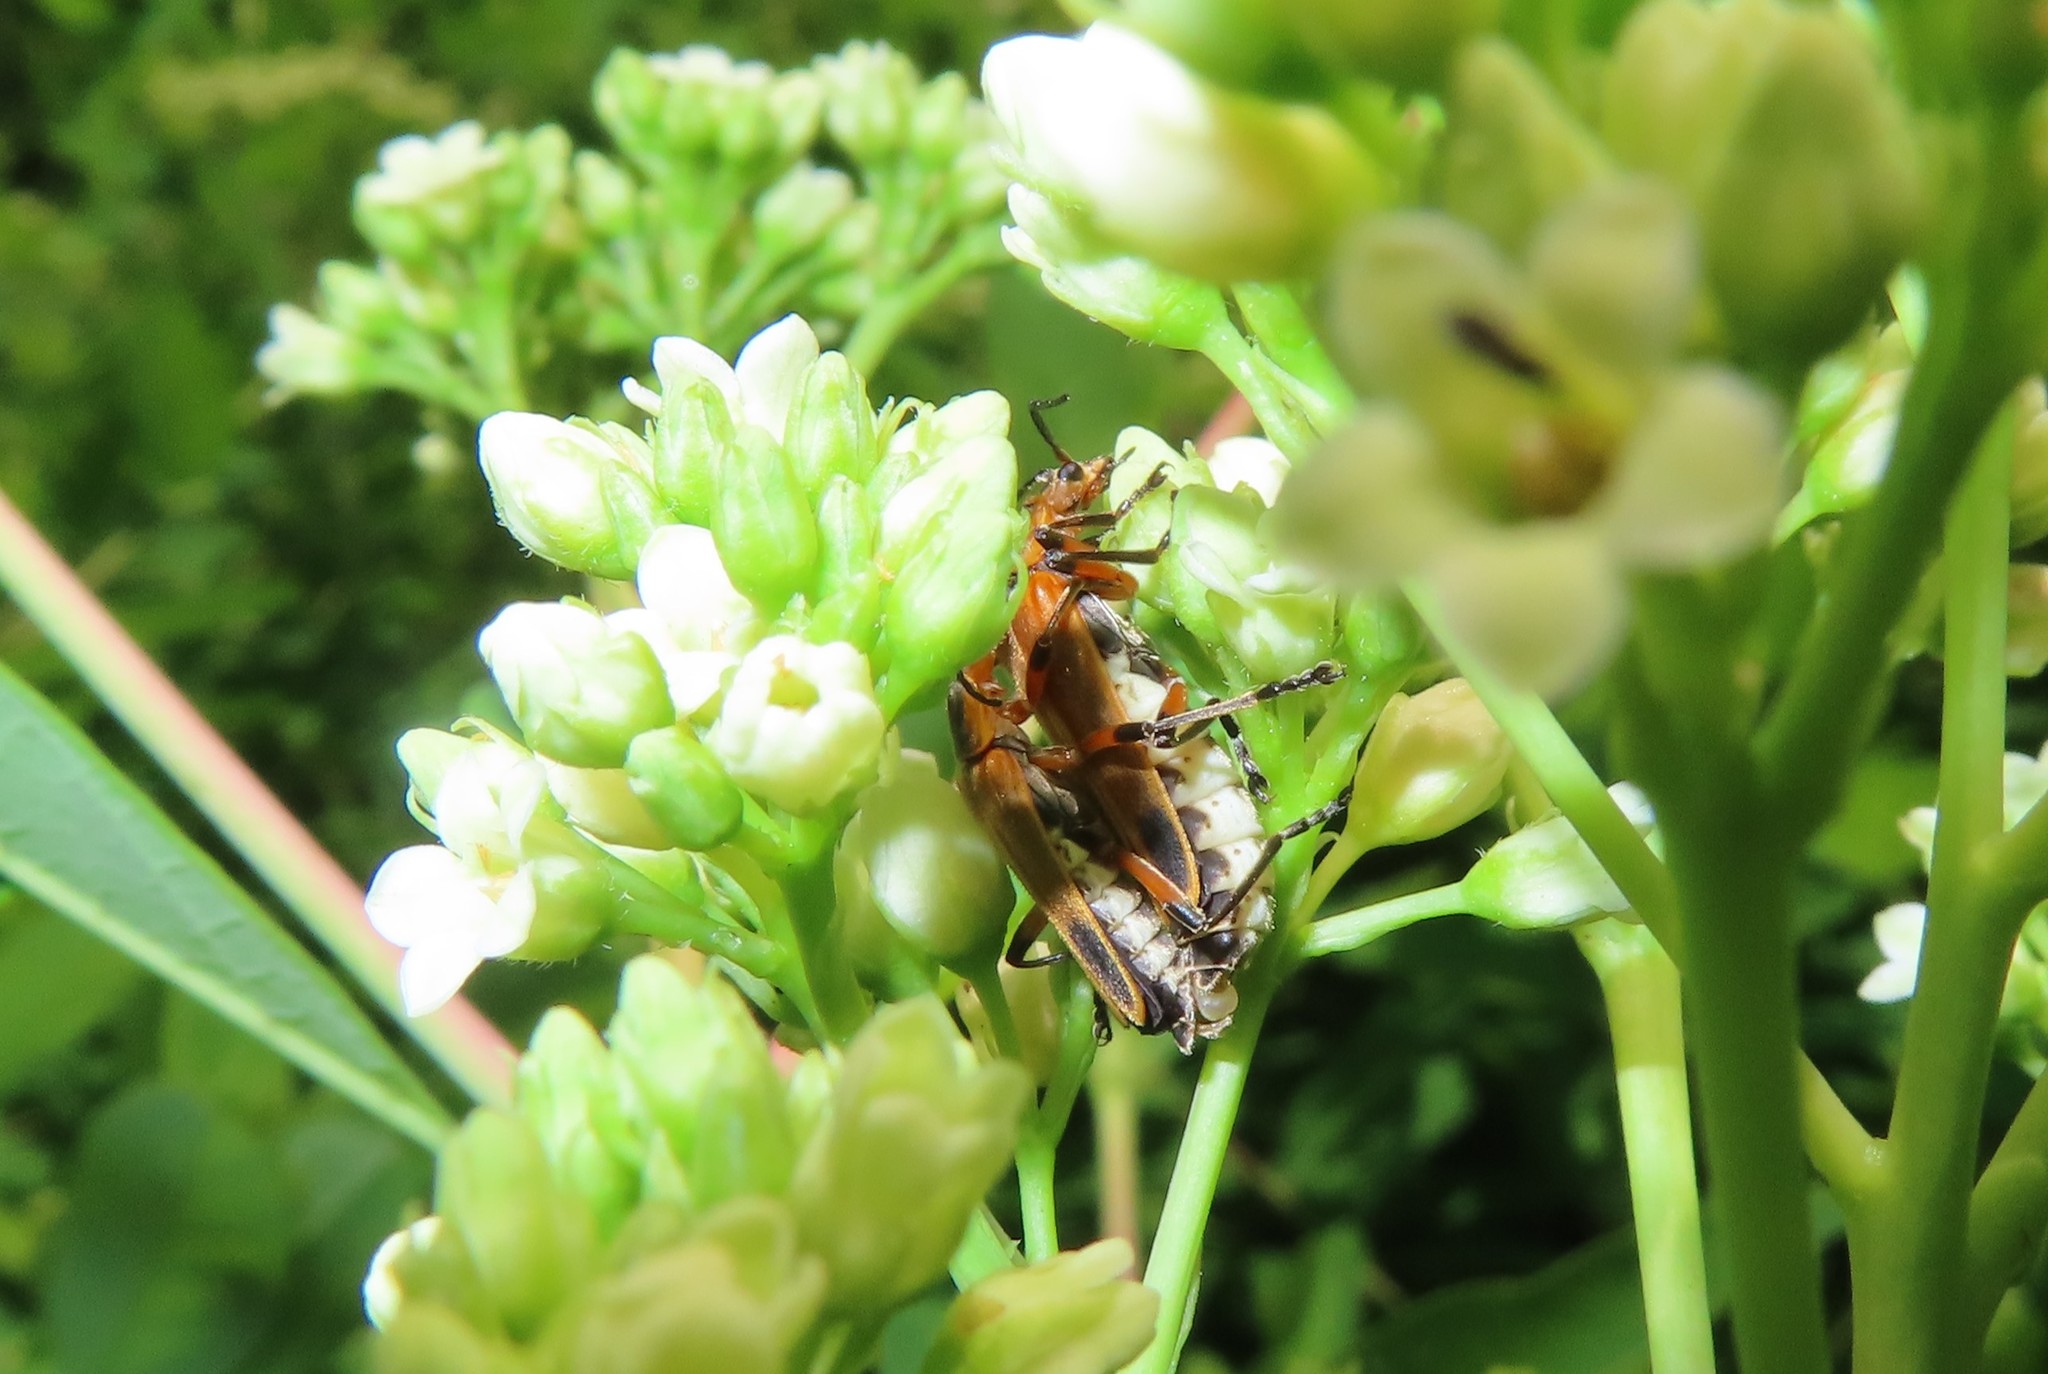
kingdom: Animalia
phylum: Arthropoda
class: Insecta
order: Coleoptera
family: Cantharidae
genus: Chauliognathus
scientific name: Chauliognathus marginatus
